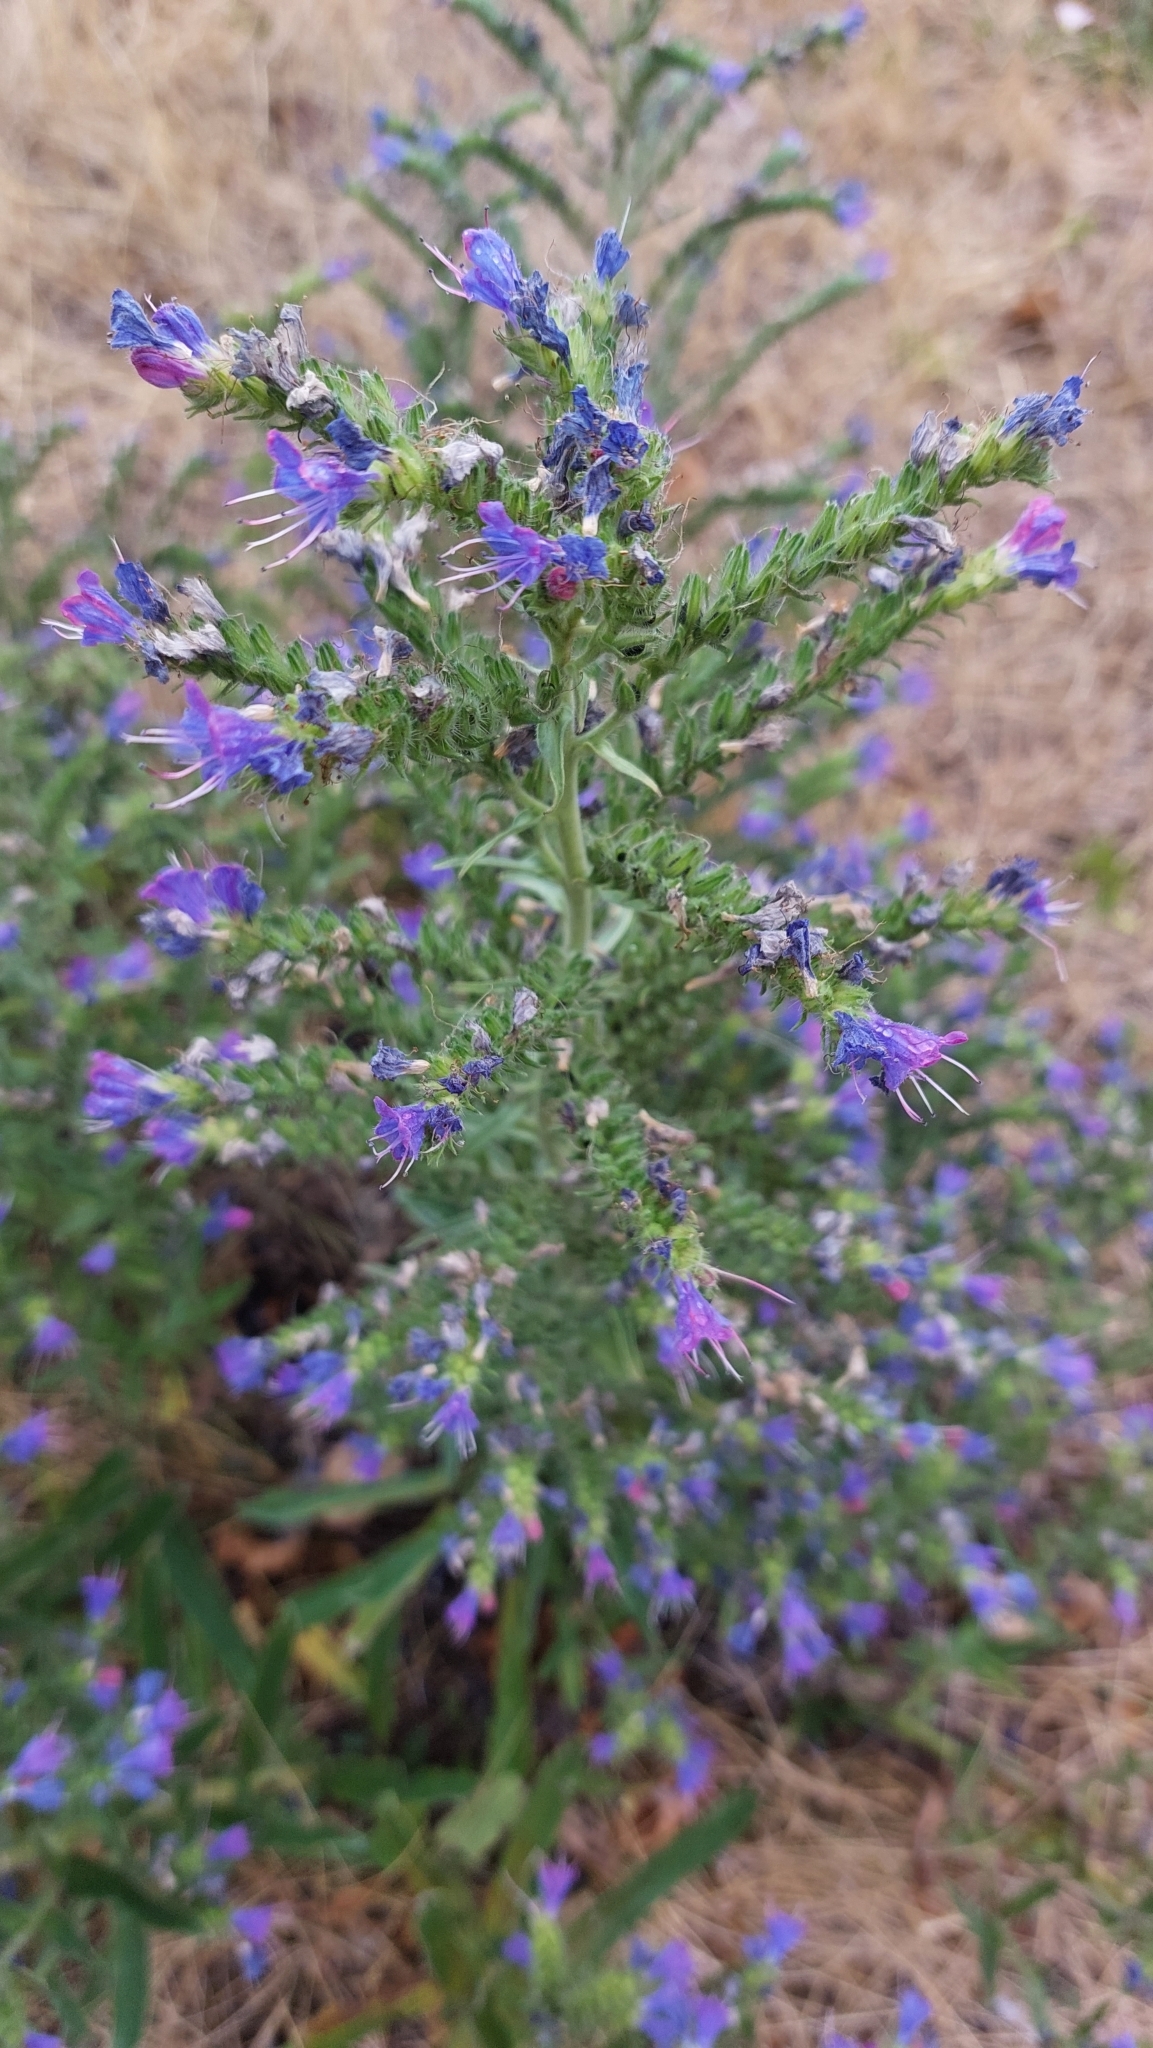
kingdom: Plantae
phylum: Tracheophyta
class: Magnoliopsida
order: Boraginales
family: Boraginaceae
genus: Echium
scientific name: Echium vulgare
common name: Common viper's bugloss
